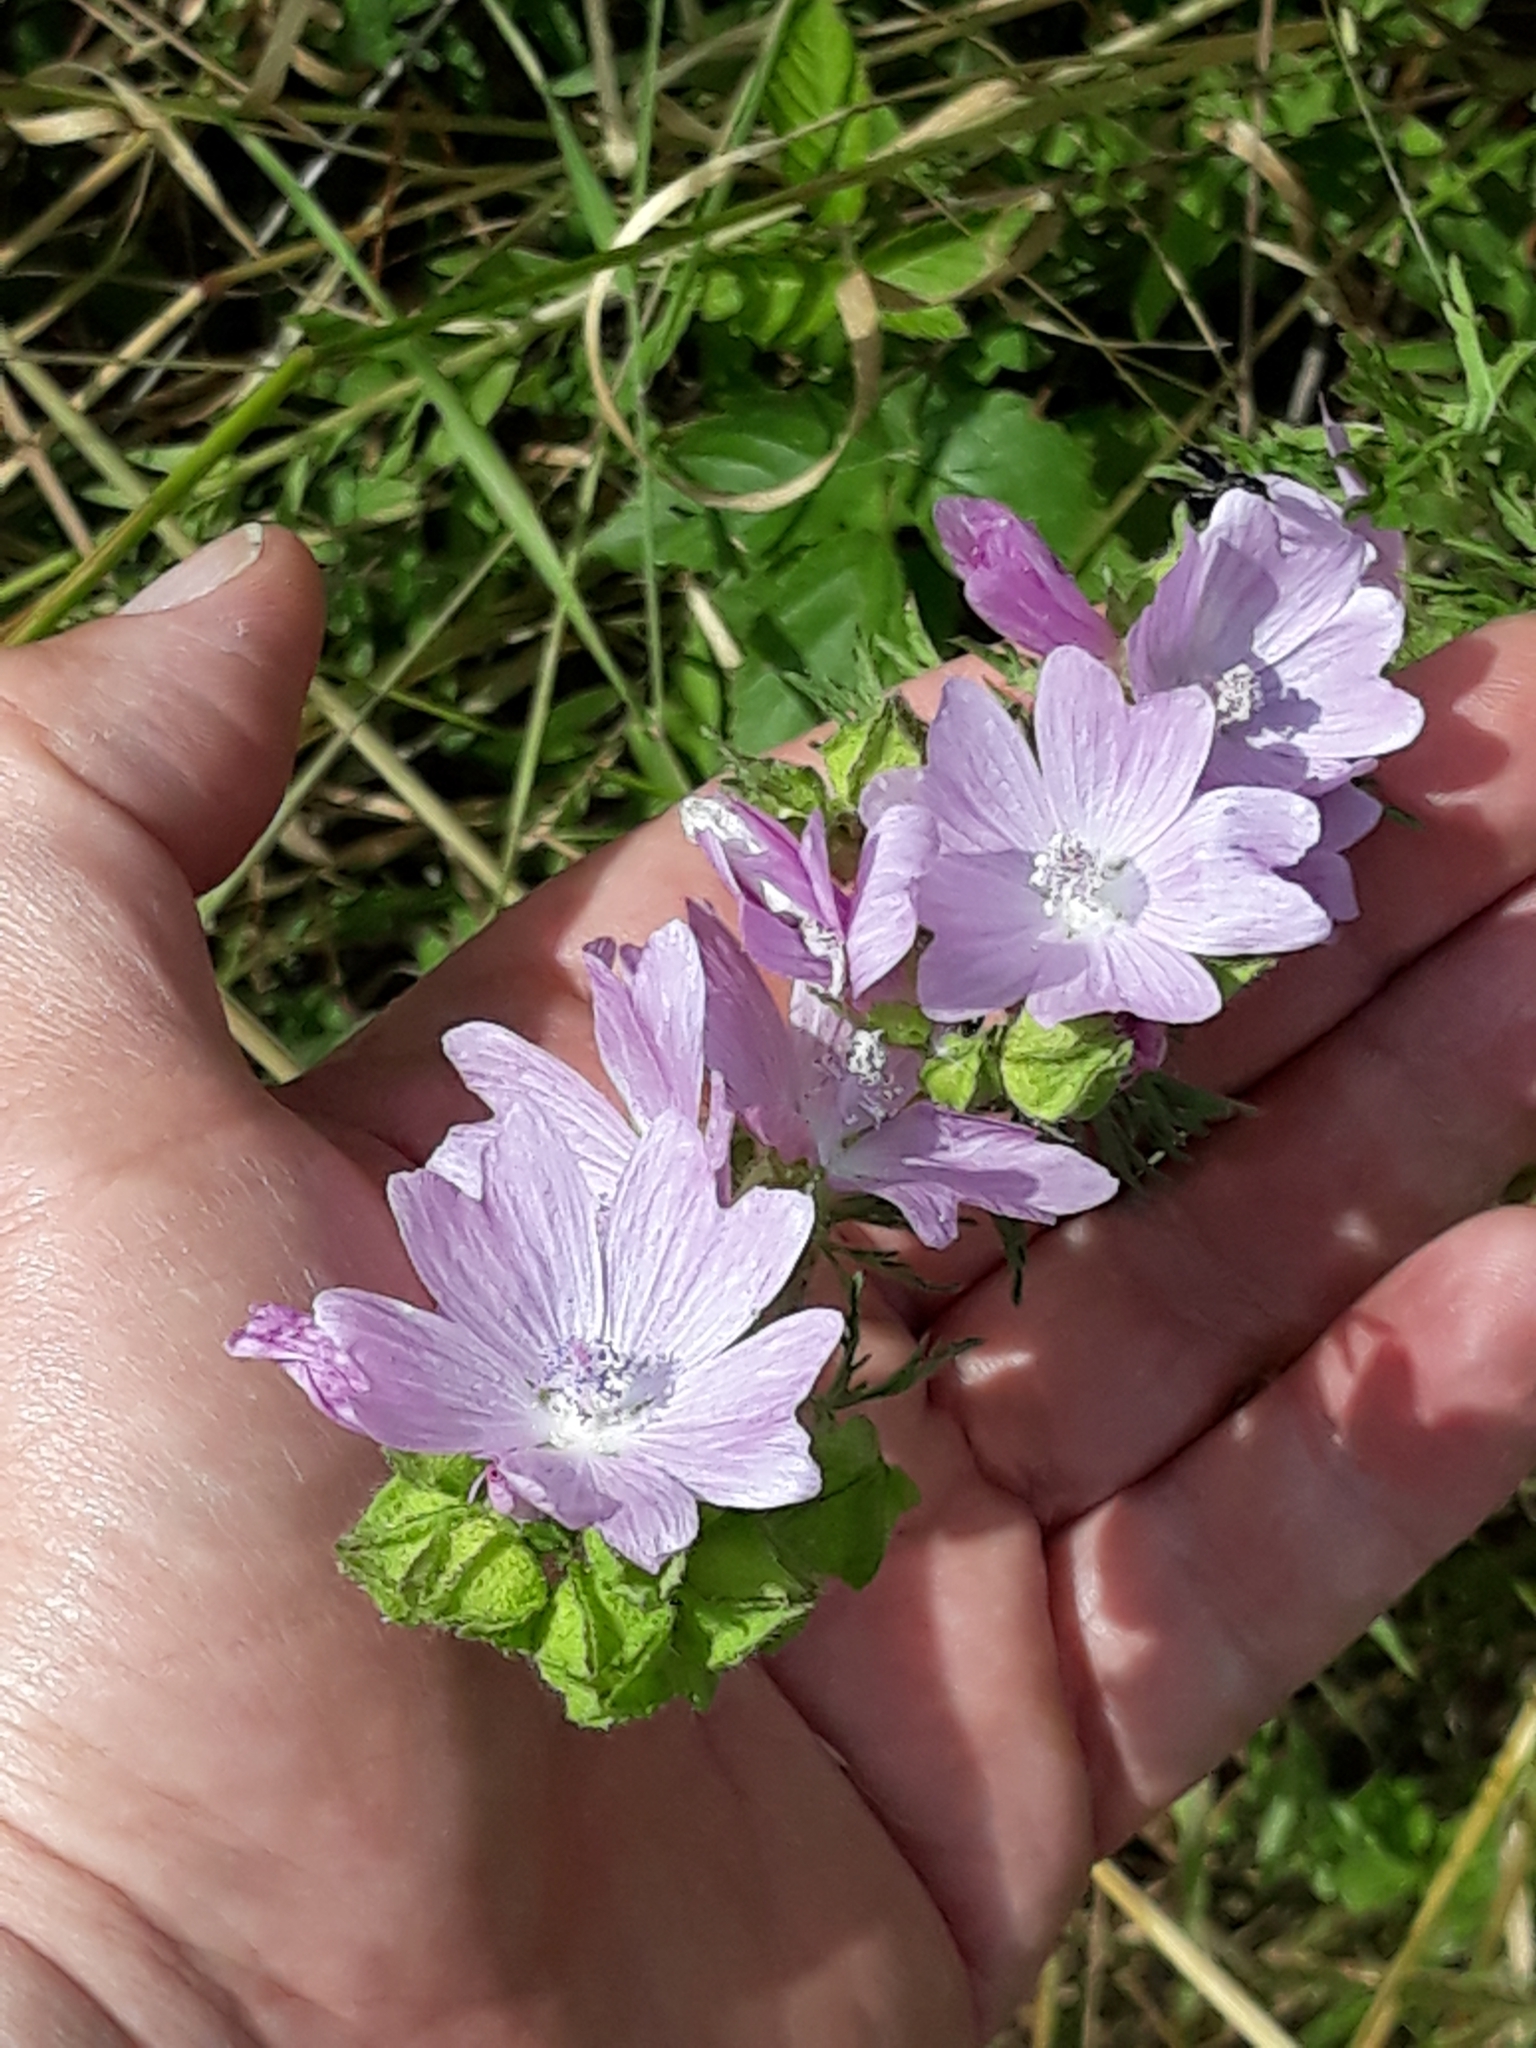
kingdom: Plantae
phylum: Tracheophyta
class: Magnoliopsida
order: Malvales
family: Malvaceae
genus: Malva
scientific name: Malva moschata
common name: Musk mallow
